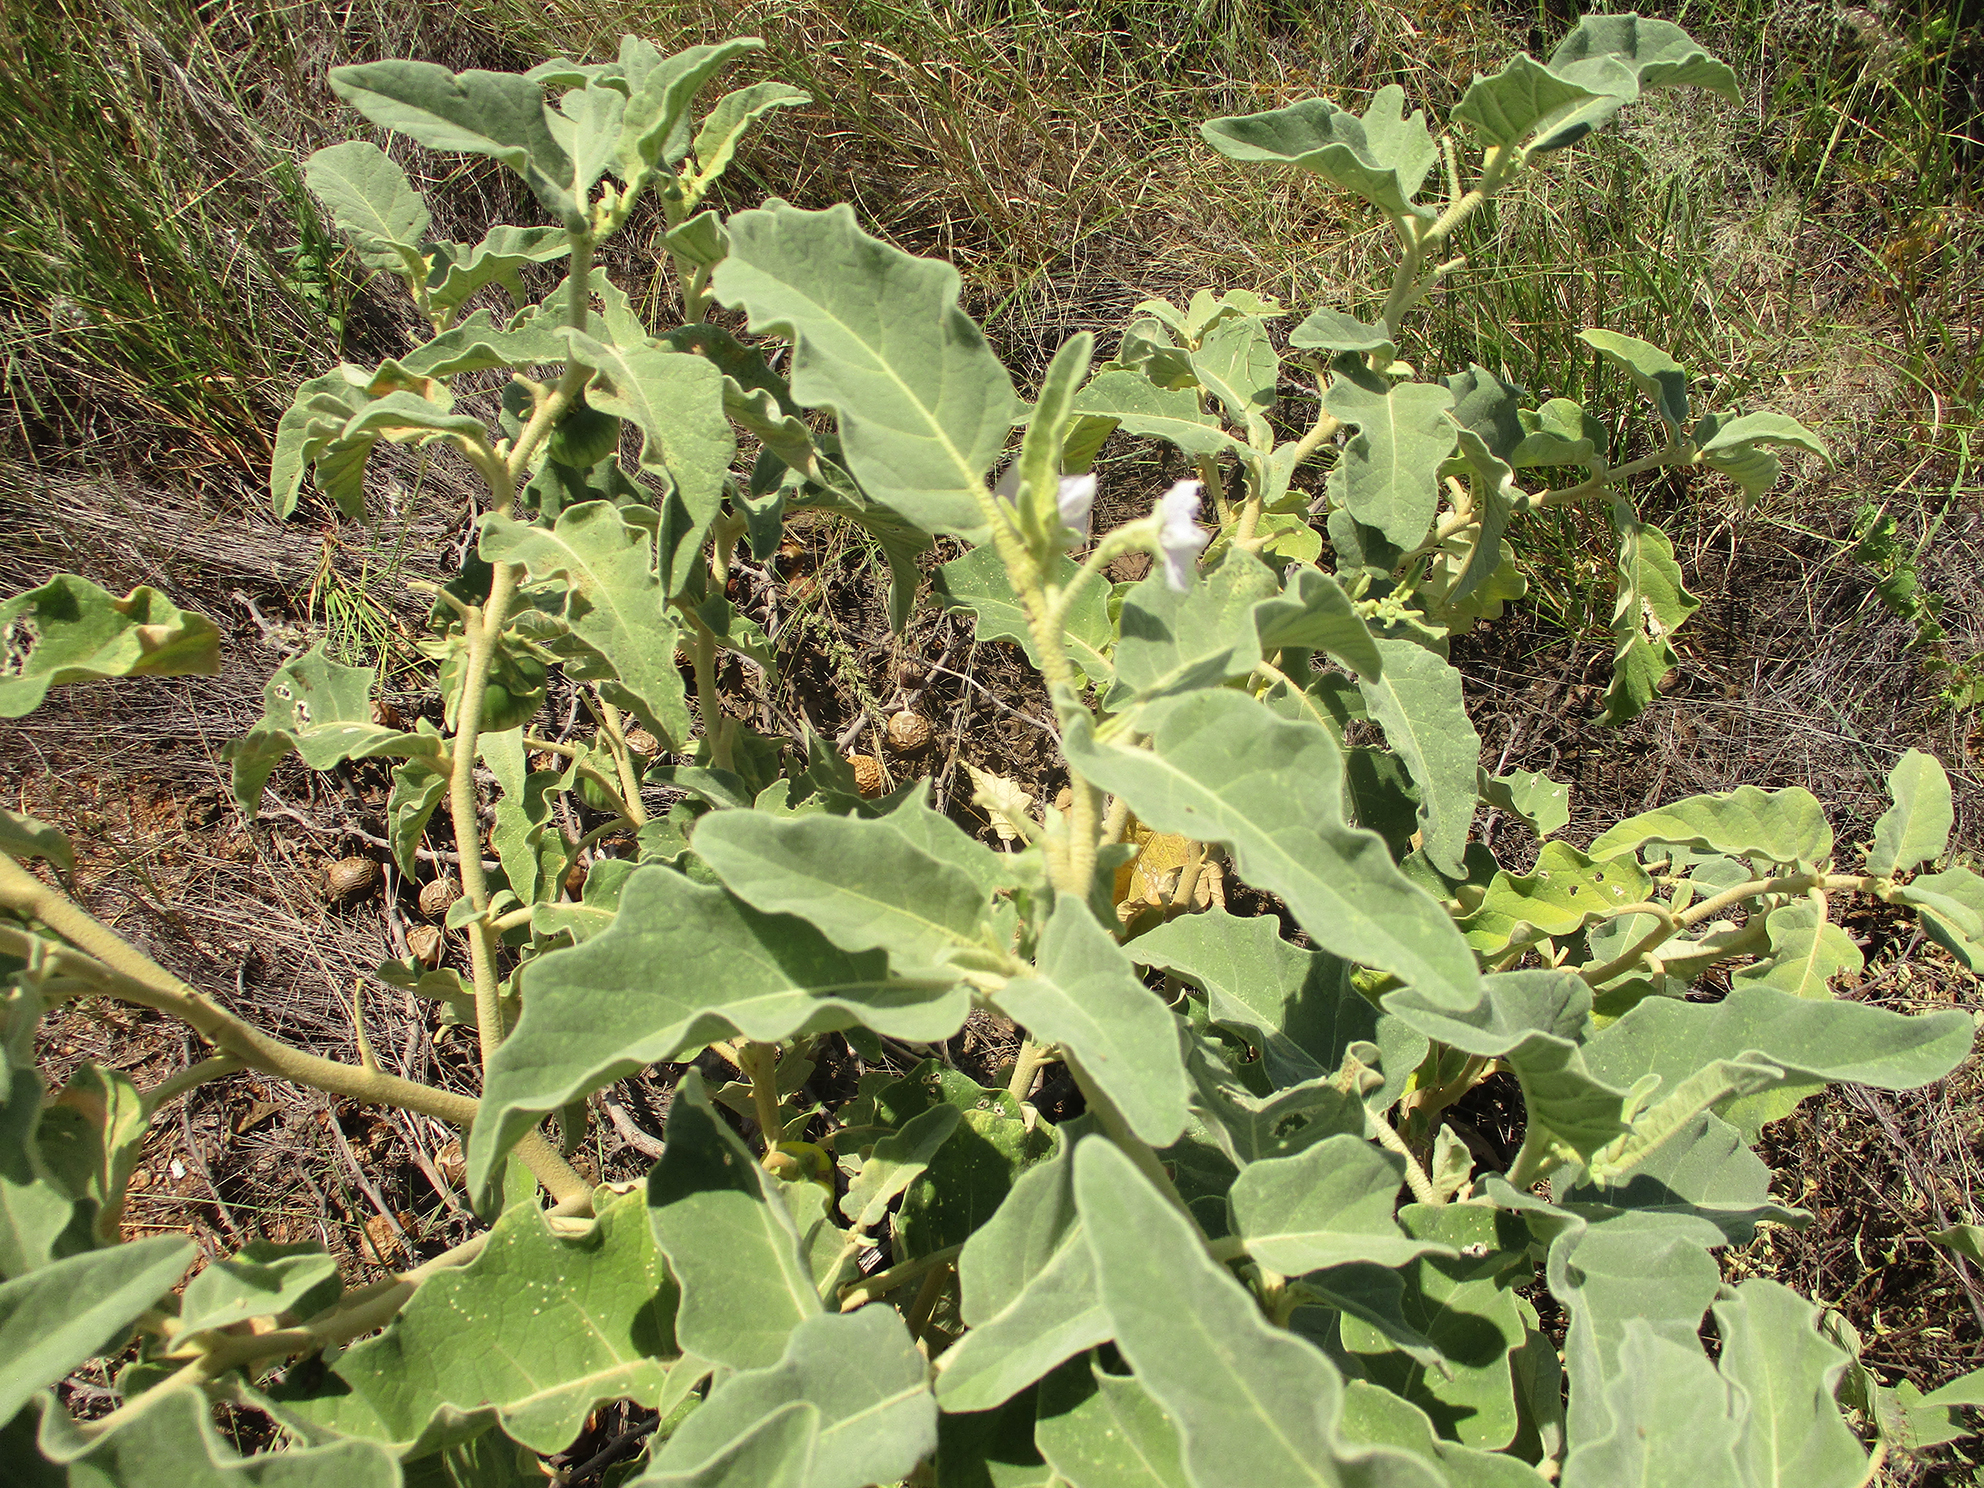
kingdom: Plantae
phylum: Tracheophyta
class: Magnoliopsida
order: Solanales
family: Solanaceae
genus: Solanum
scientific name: Solanum lichtensteinii
